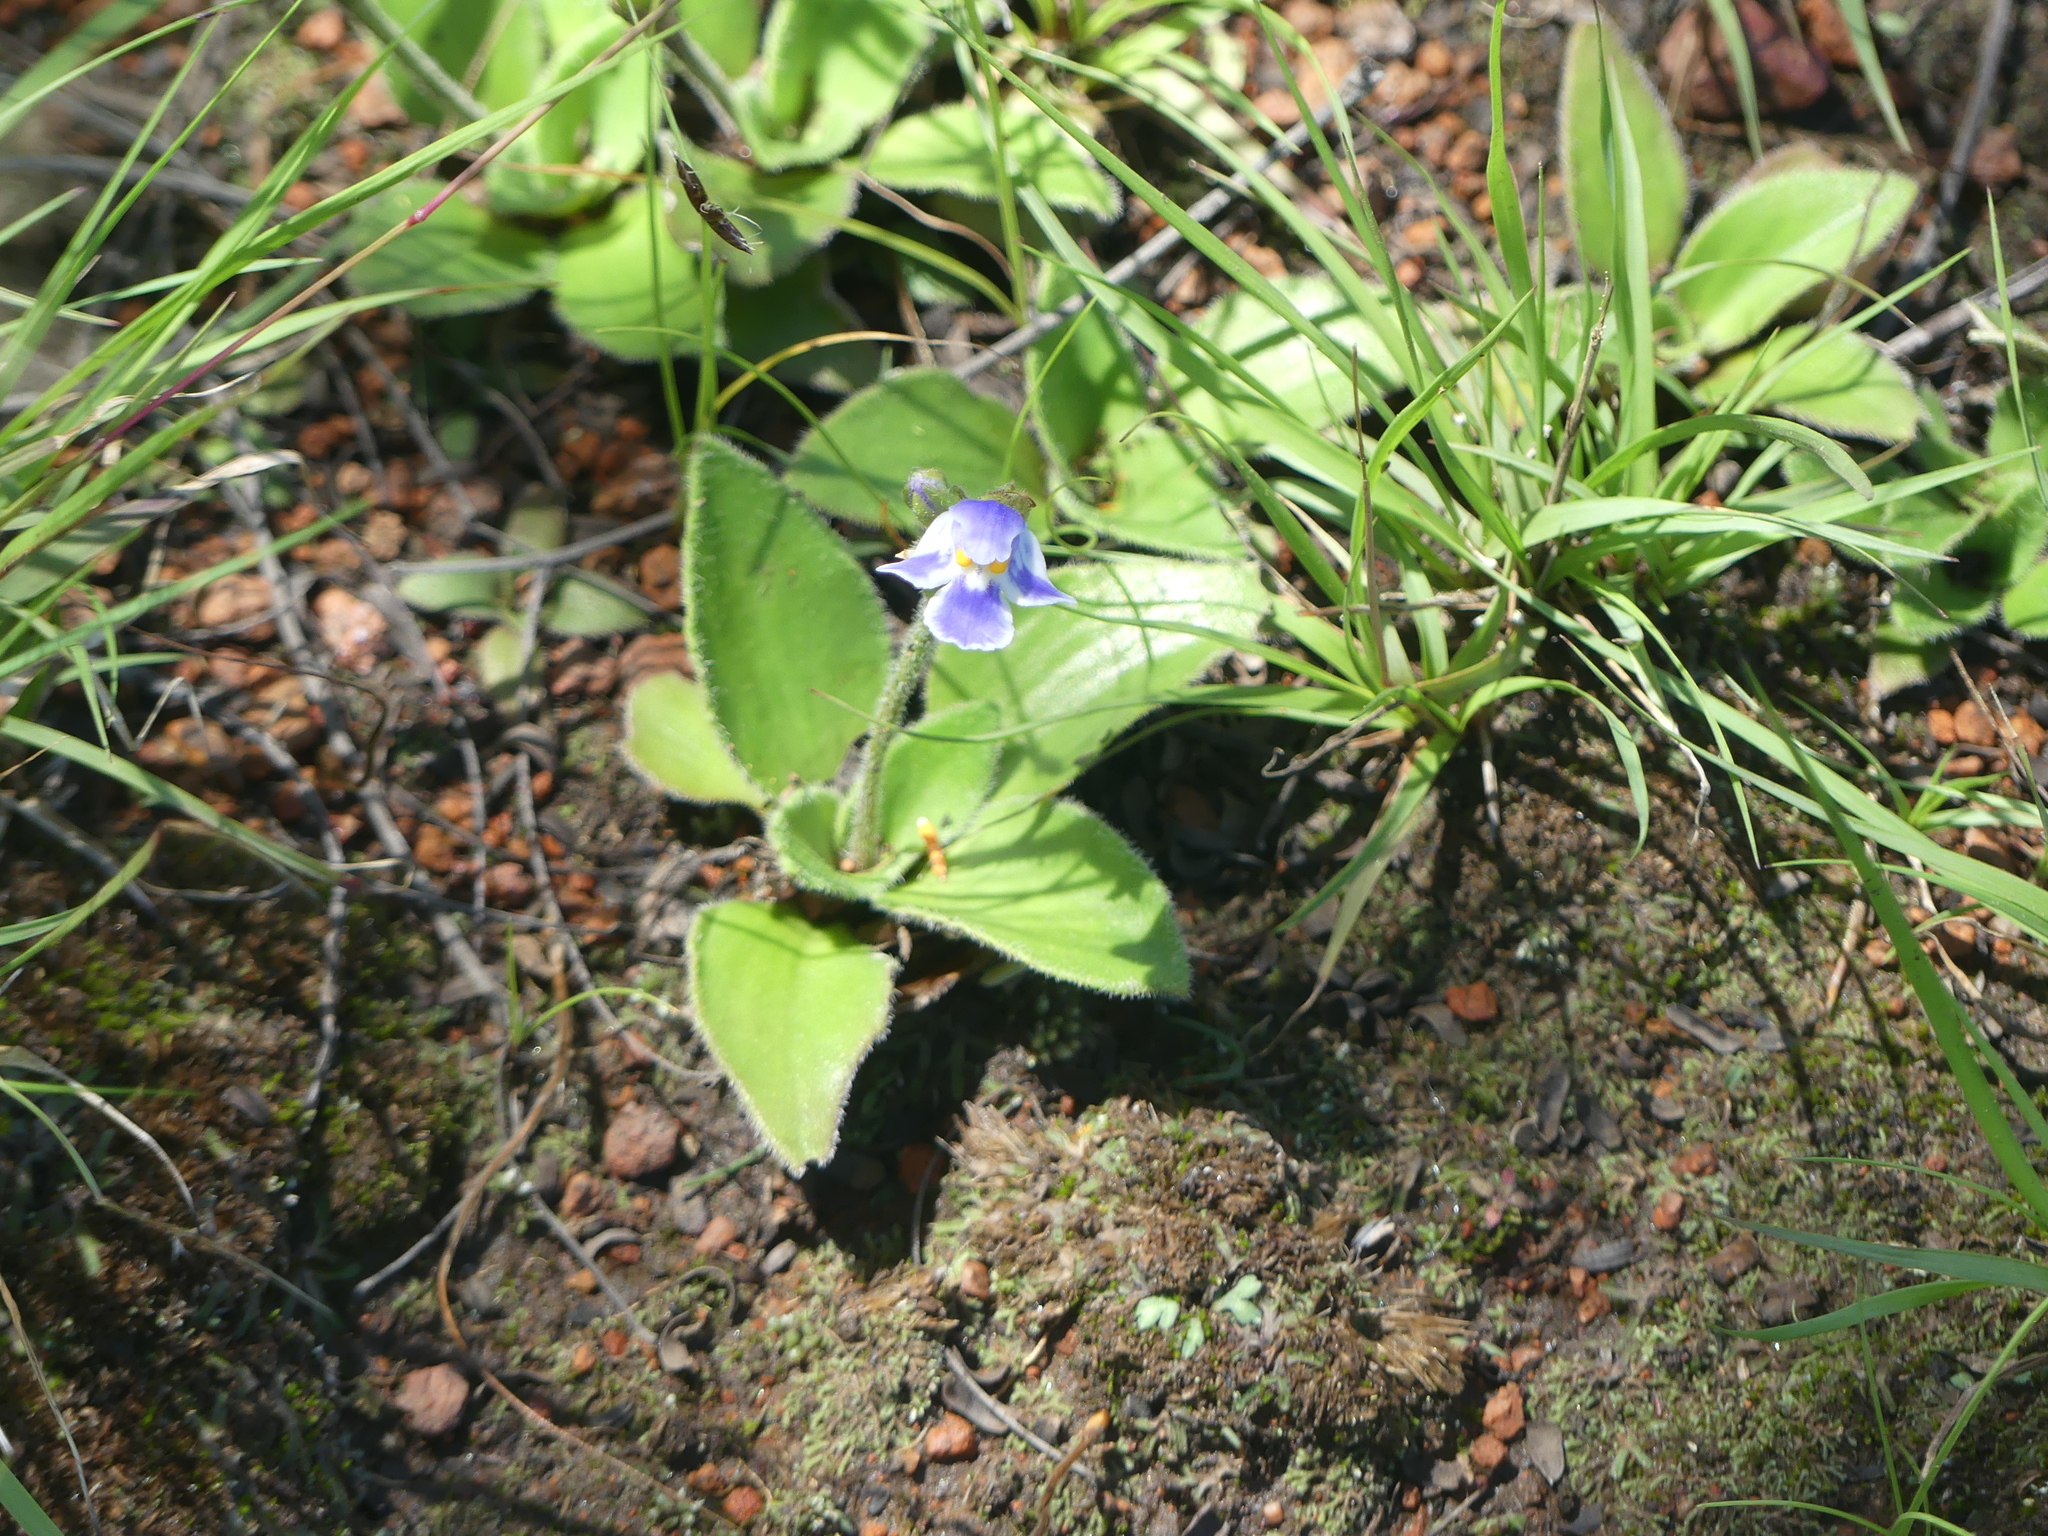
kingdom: Plantae
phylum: Tracheophyta
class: Magnoliopsida
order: Lamiales
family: Linderniaceae
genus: Craterostigma
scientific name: Craterostigma plantagineum
